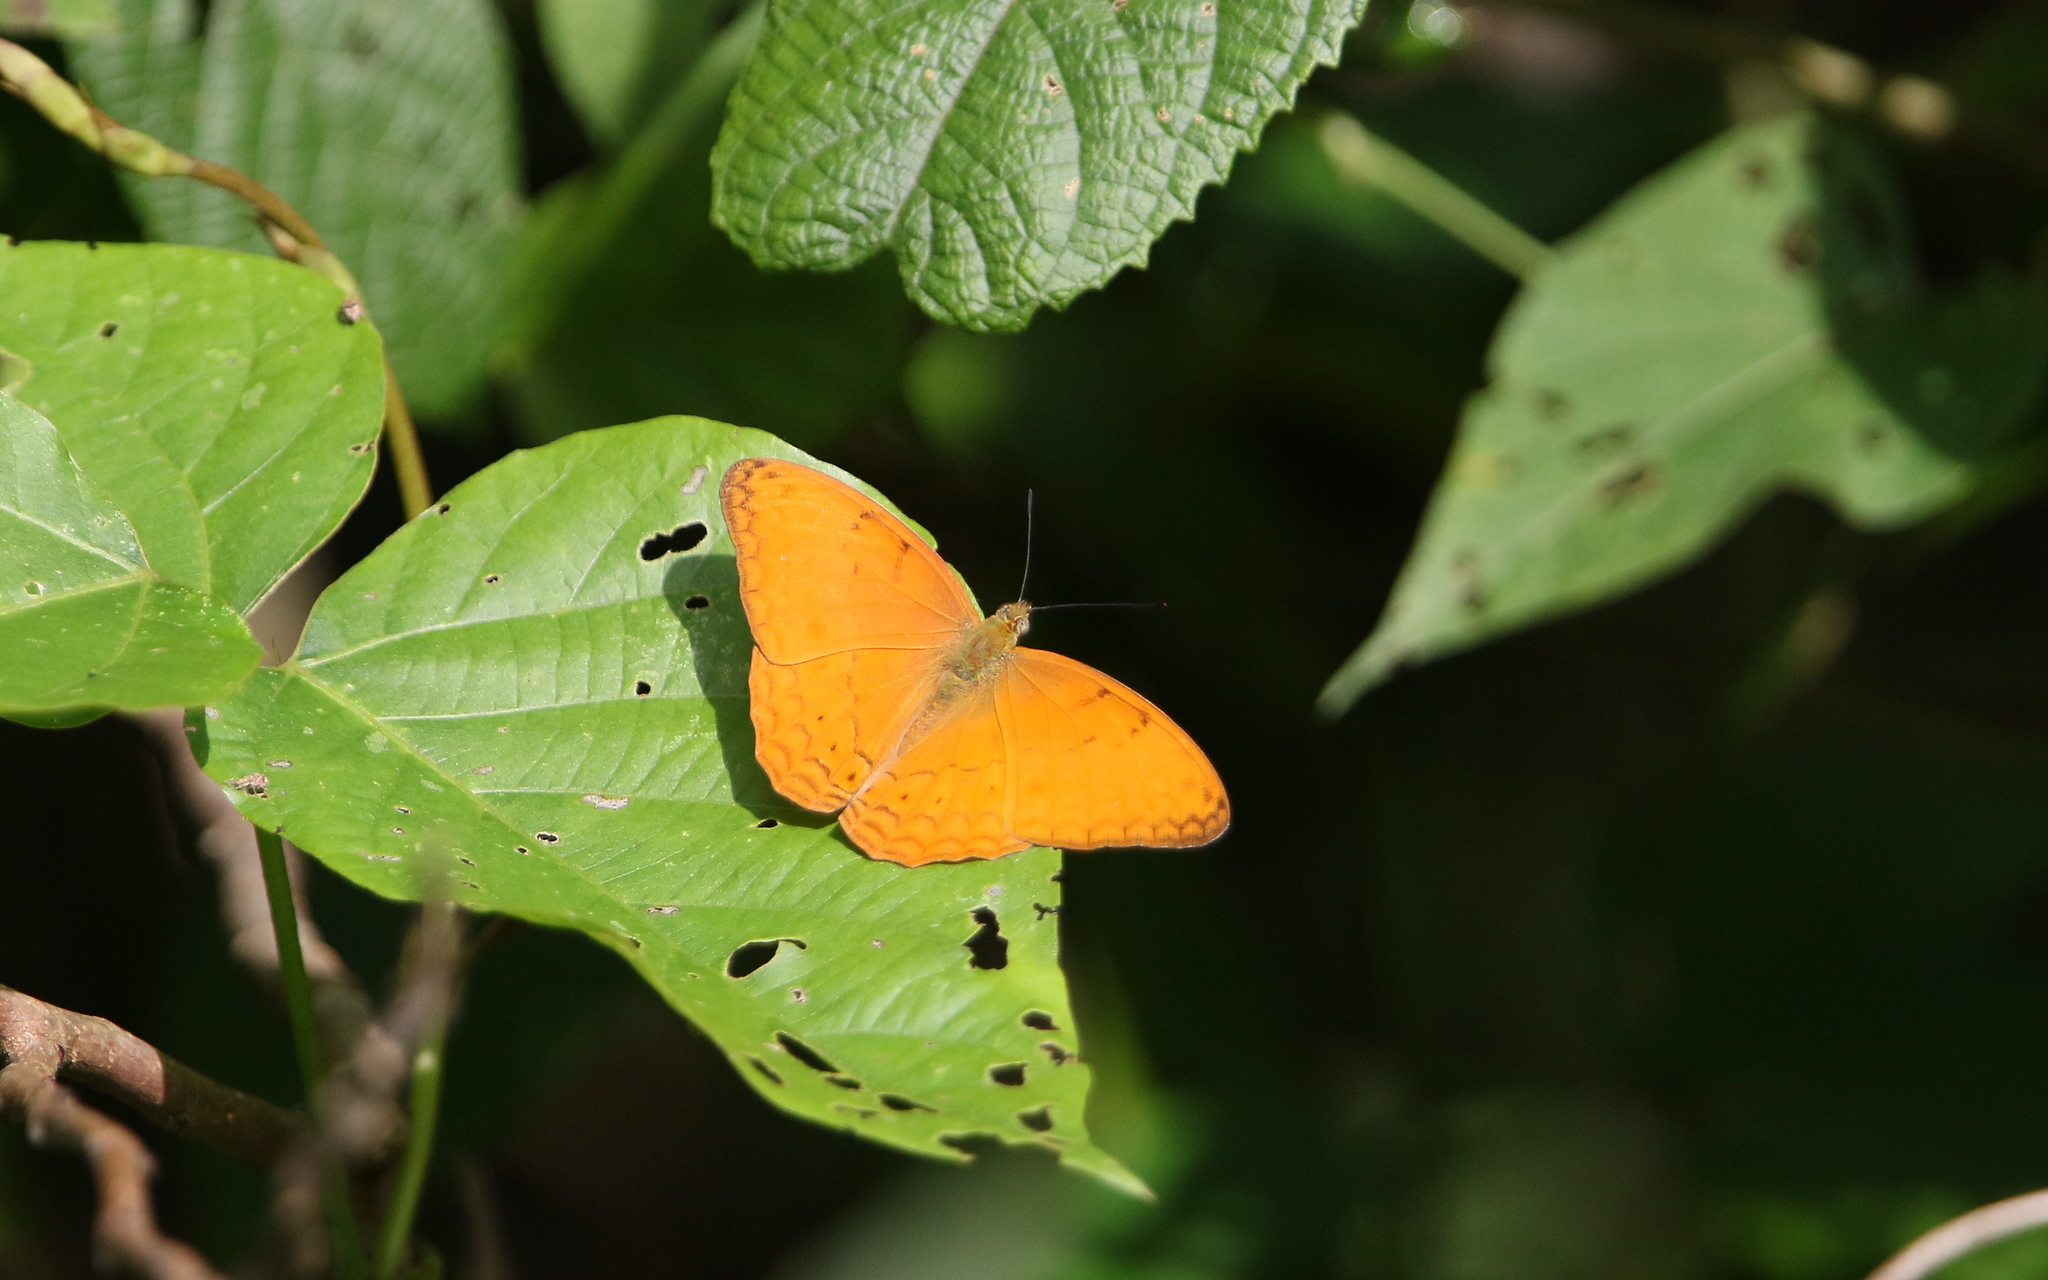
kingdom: Animalia
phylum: Arthropoda
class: Insecta
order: Lepidoptera
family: Nymphalidae
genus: Cirrochroa
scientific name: Cirrochroa tyche
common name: Common yeoman
